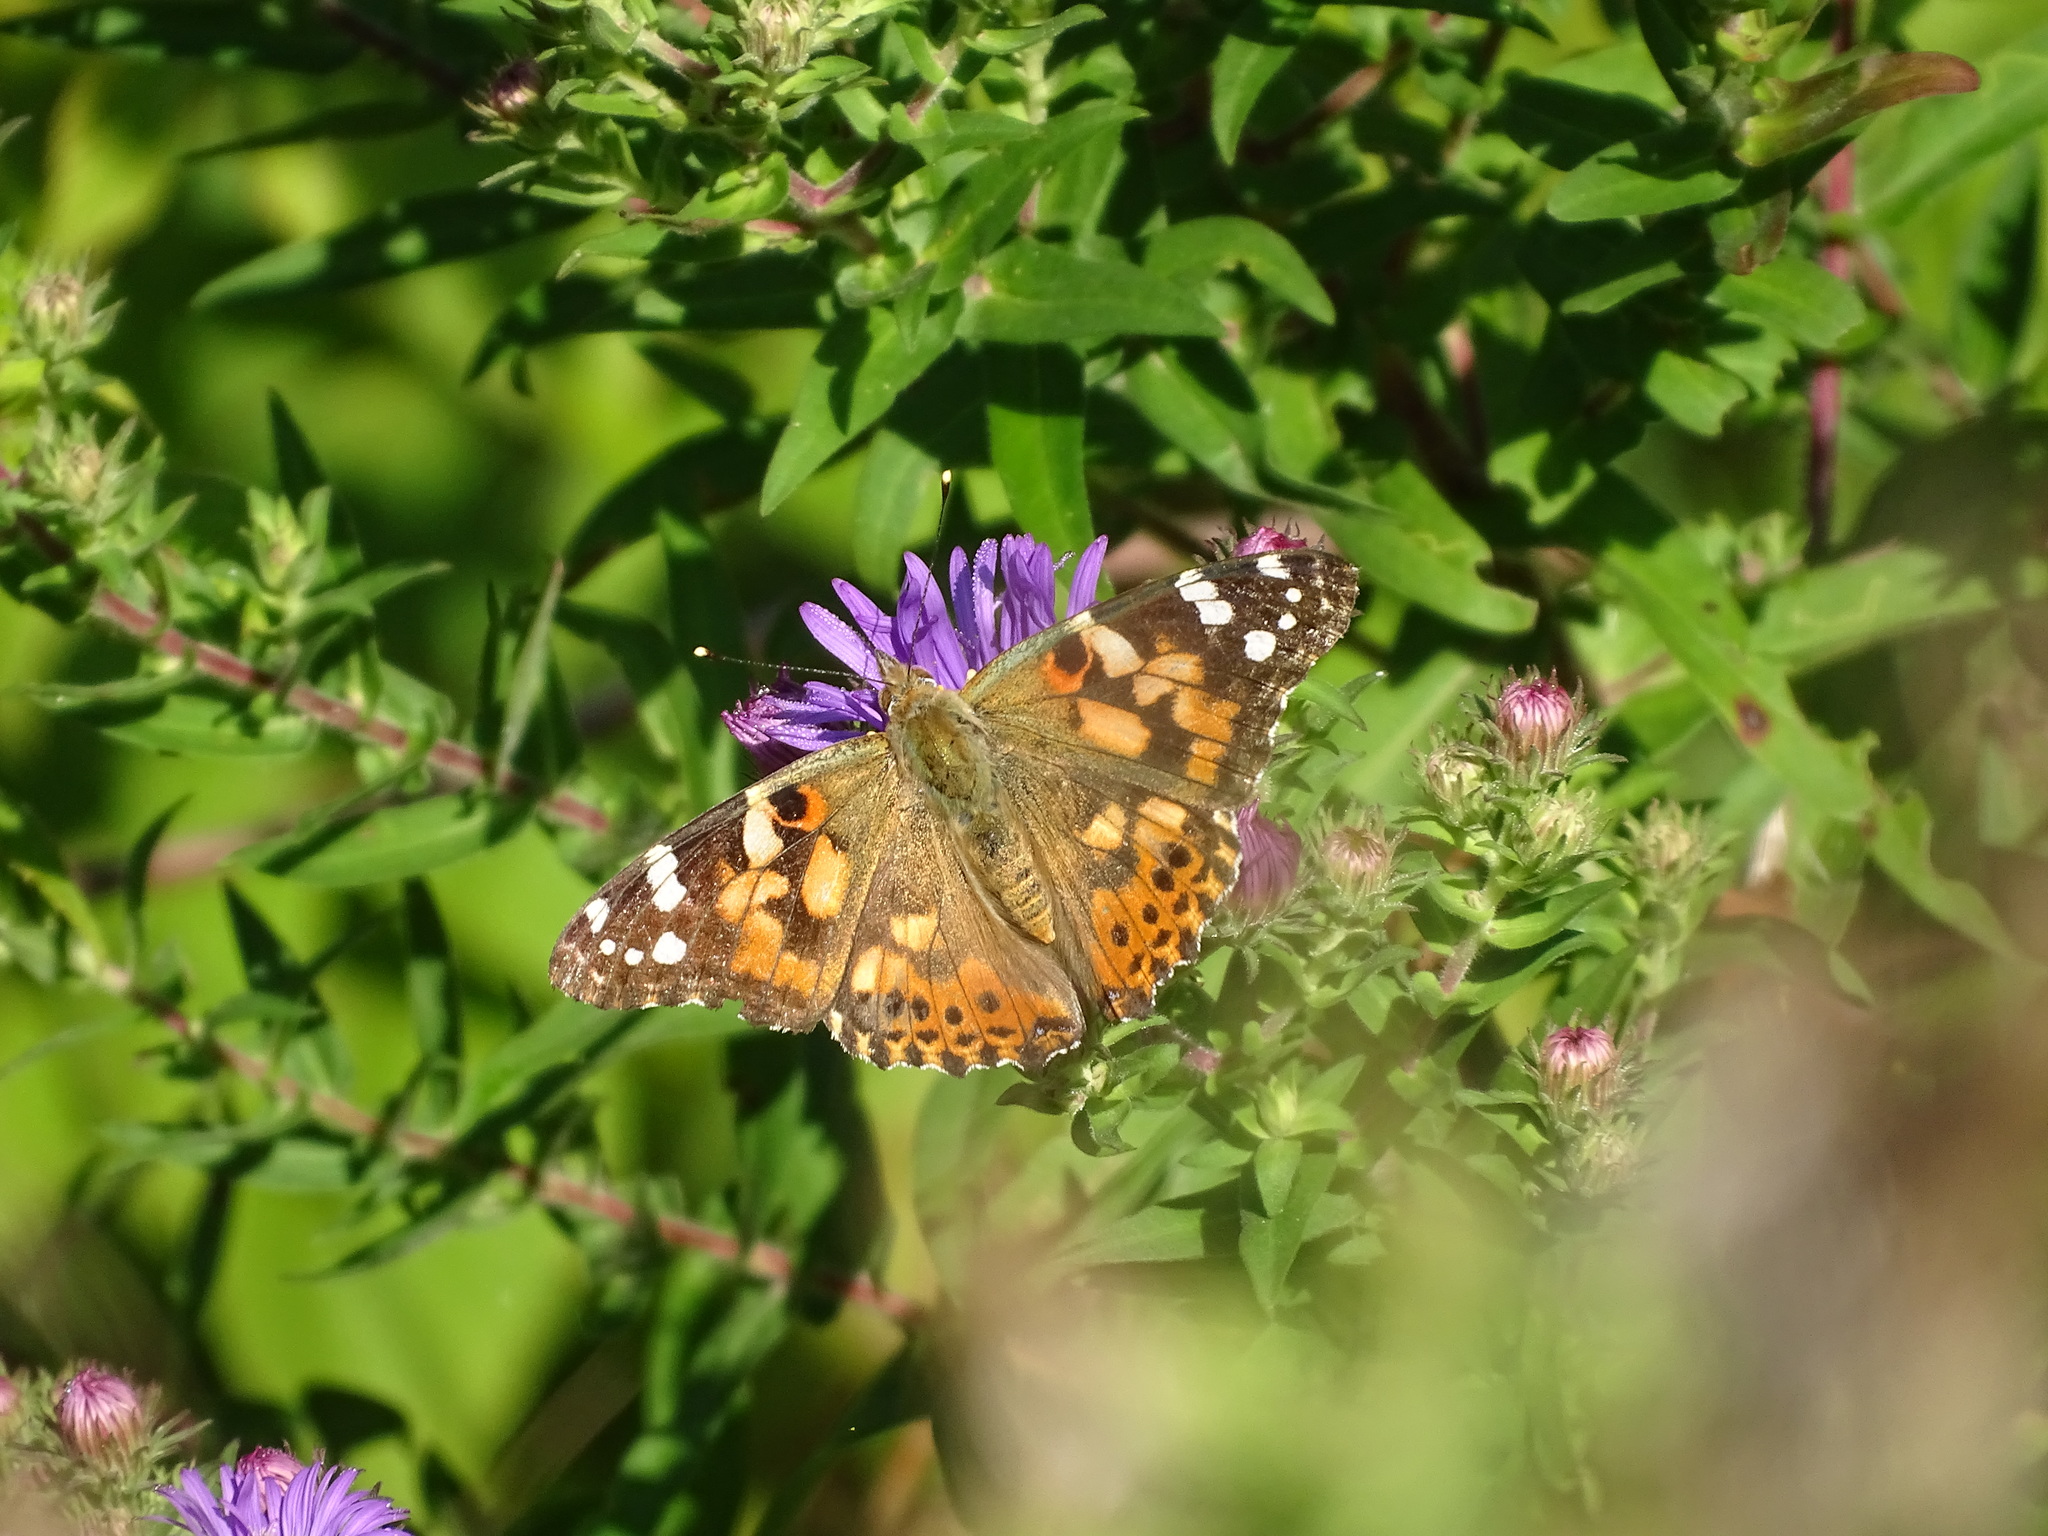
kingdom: Animalia
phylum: Arthropoda
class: Insecta
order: Lepidoptera
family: Nymphalidae
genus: Vanessa
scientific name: Vanessa cardui
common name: Painted lady
